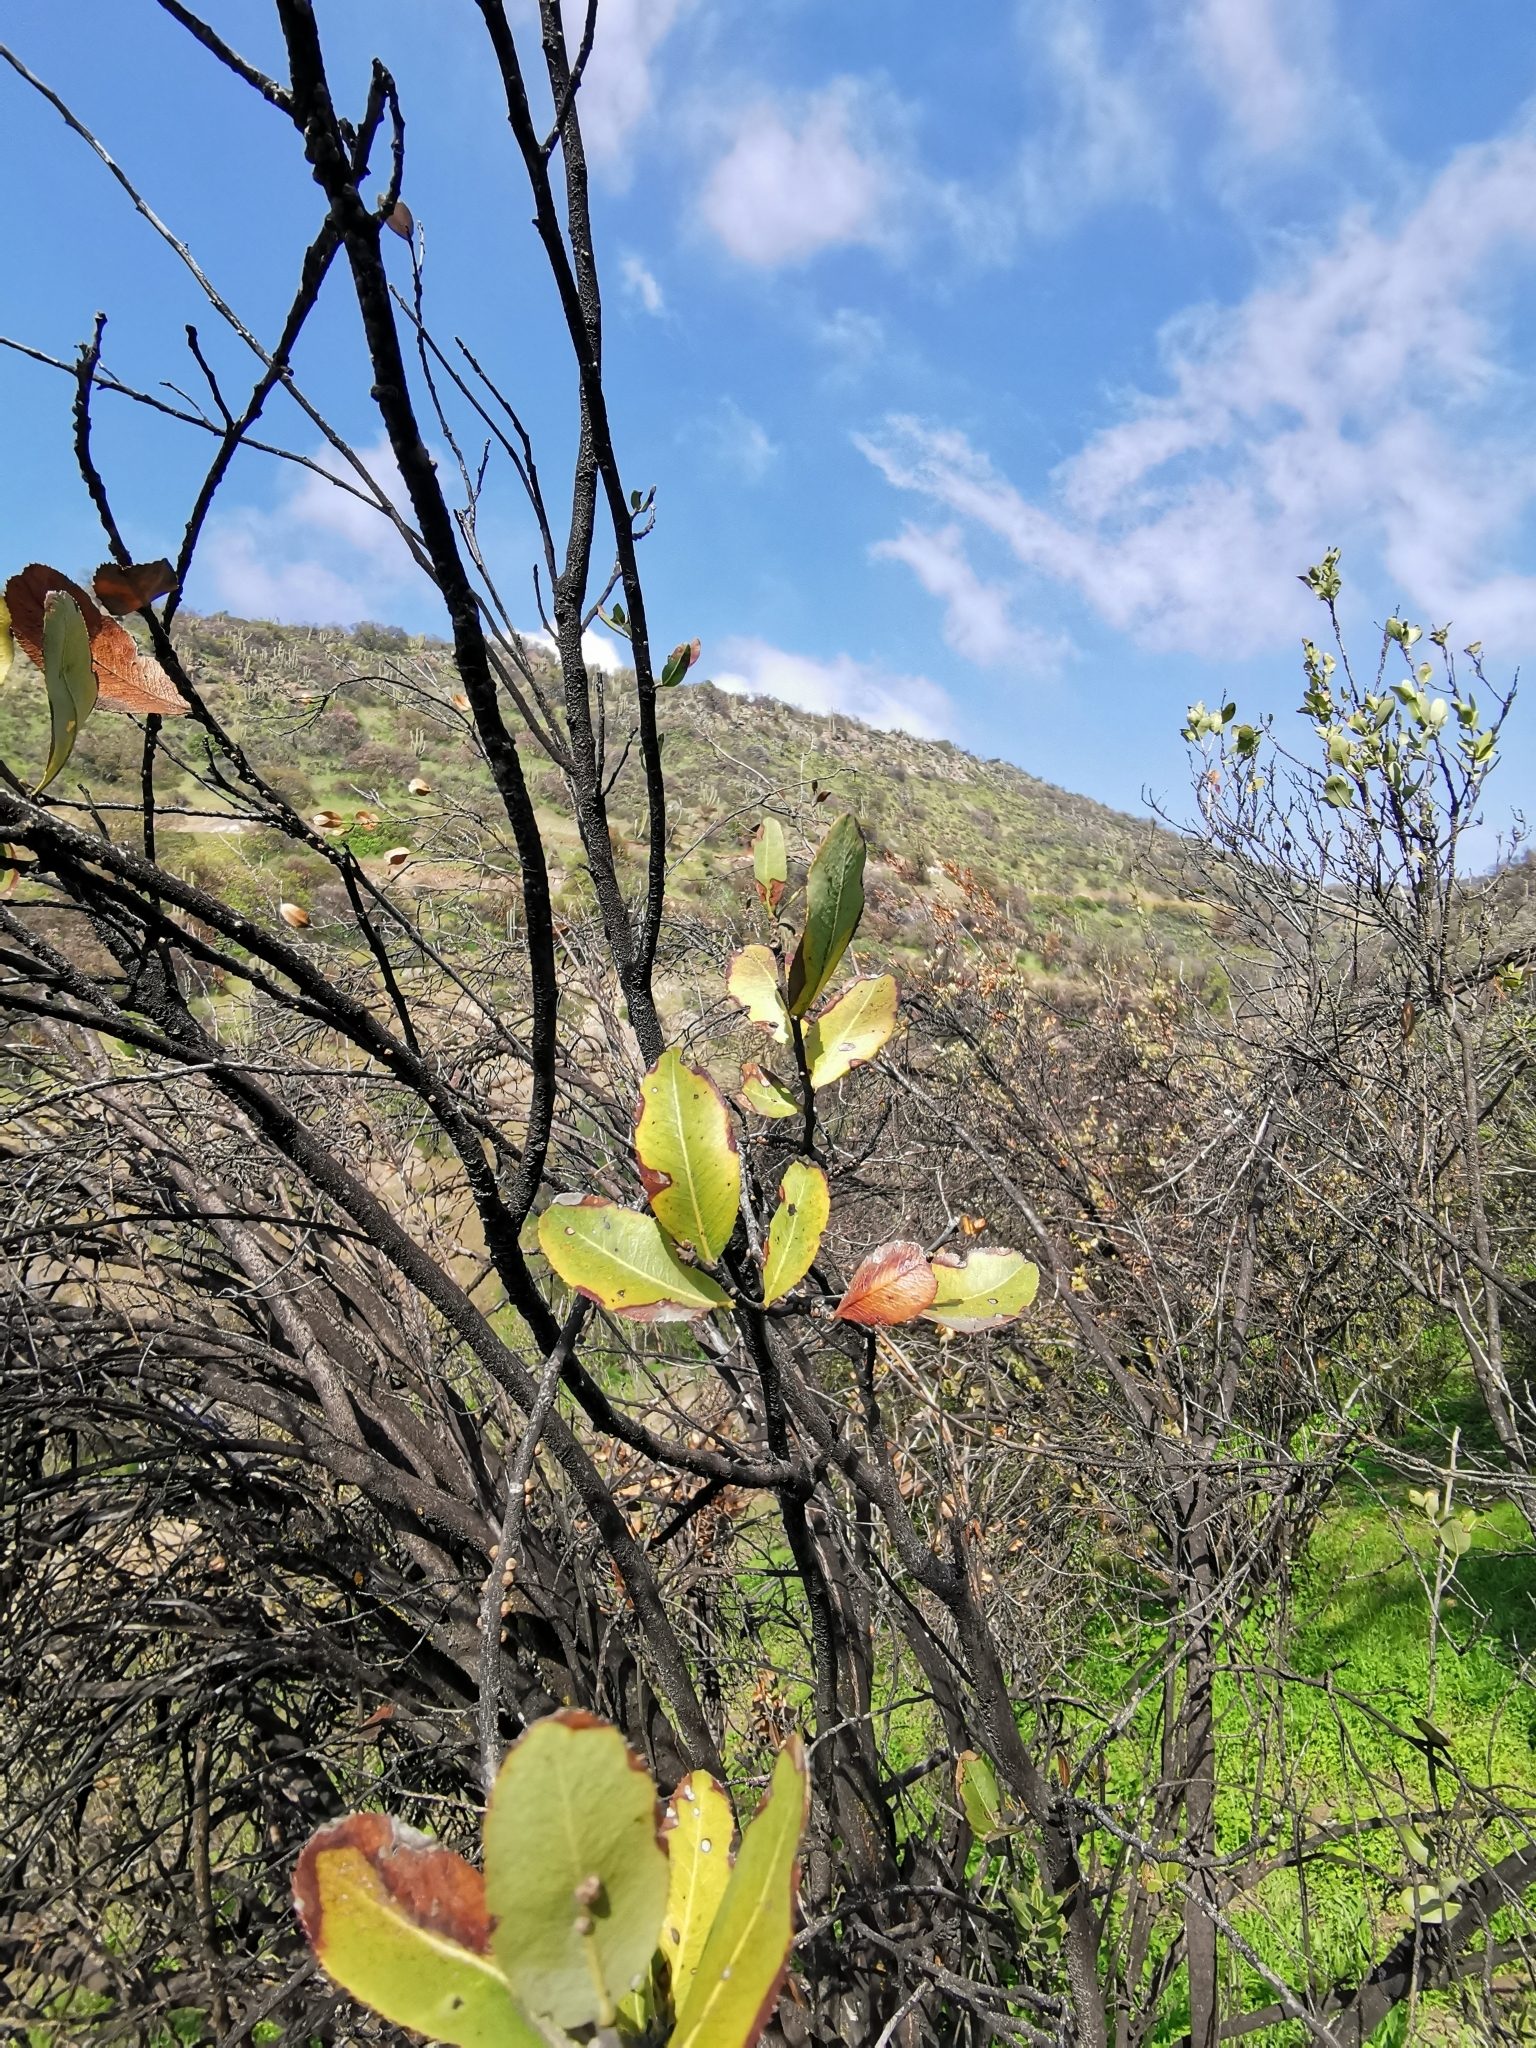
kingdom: Plantae
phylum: Tracheophyta
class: Magnoliopsida
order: Rosales
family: Rosaceae
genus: Kageneckia
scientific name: Kageneckia oblonga
